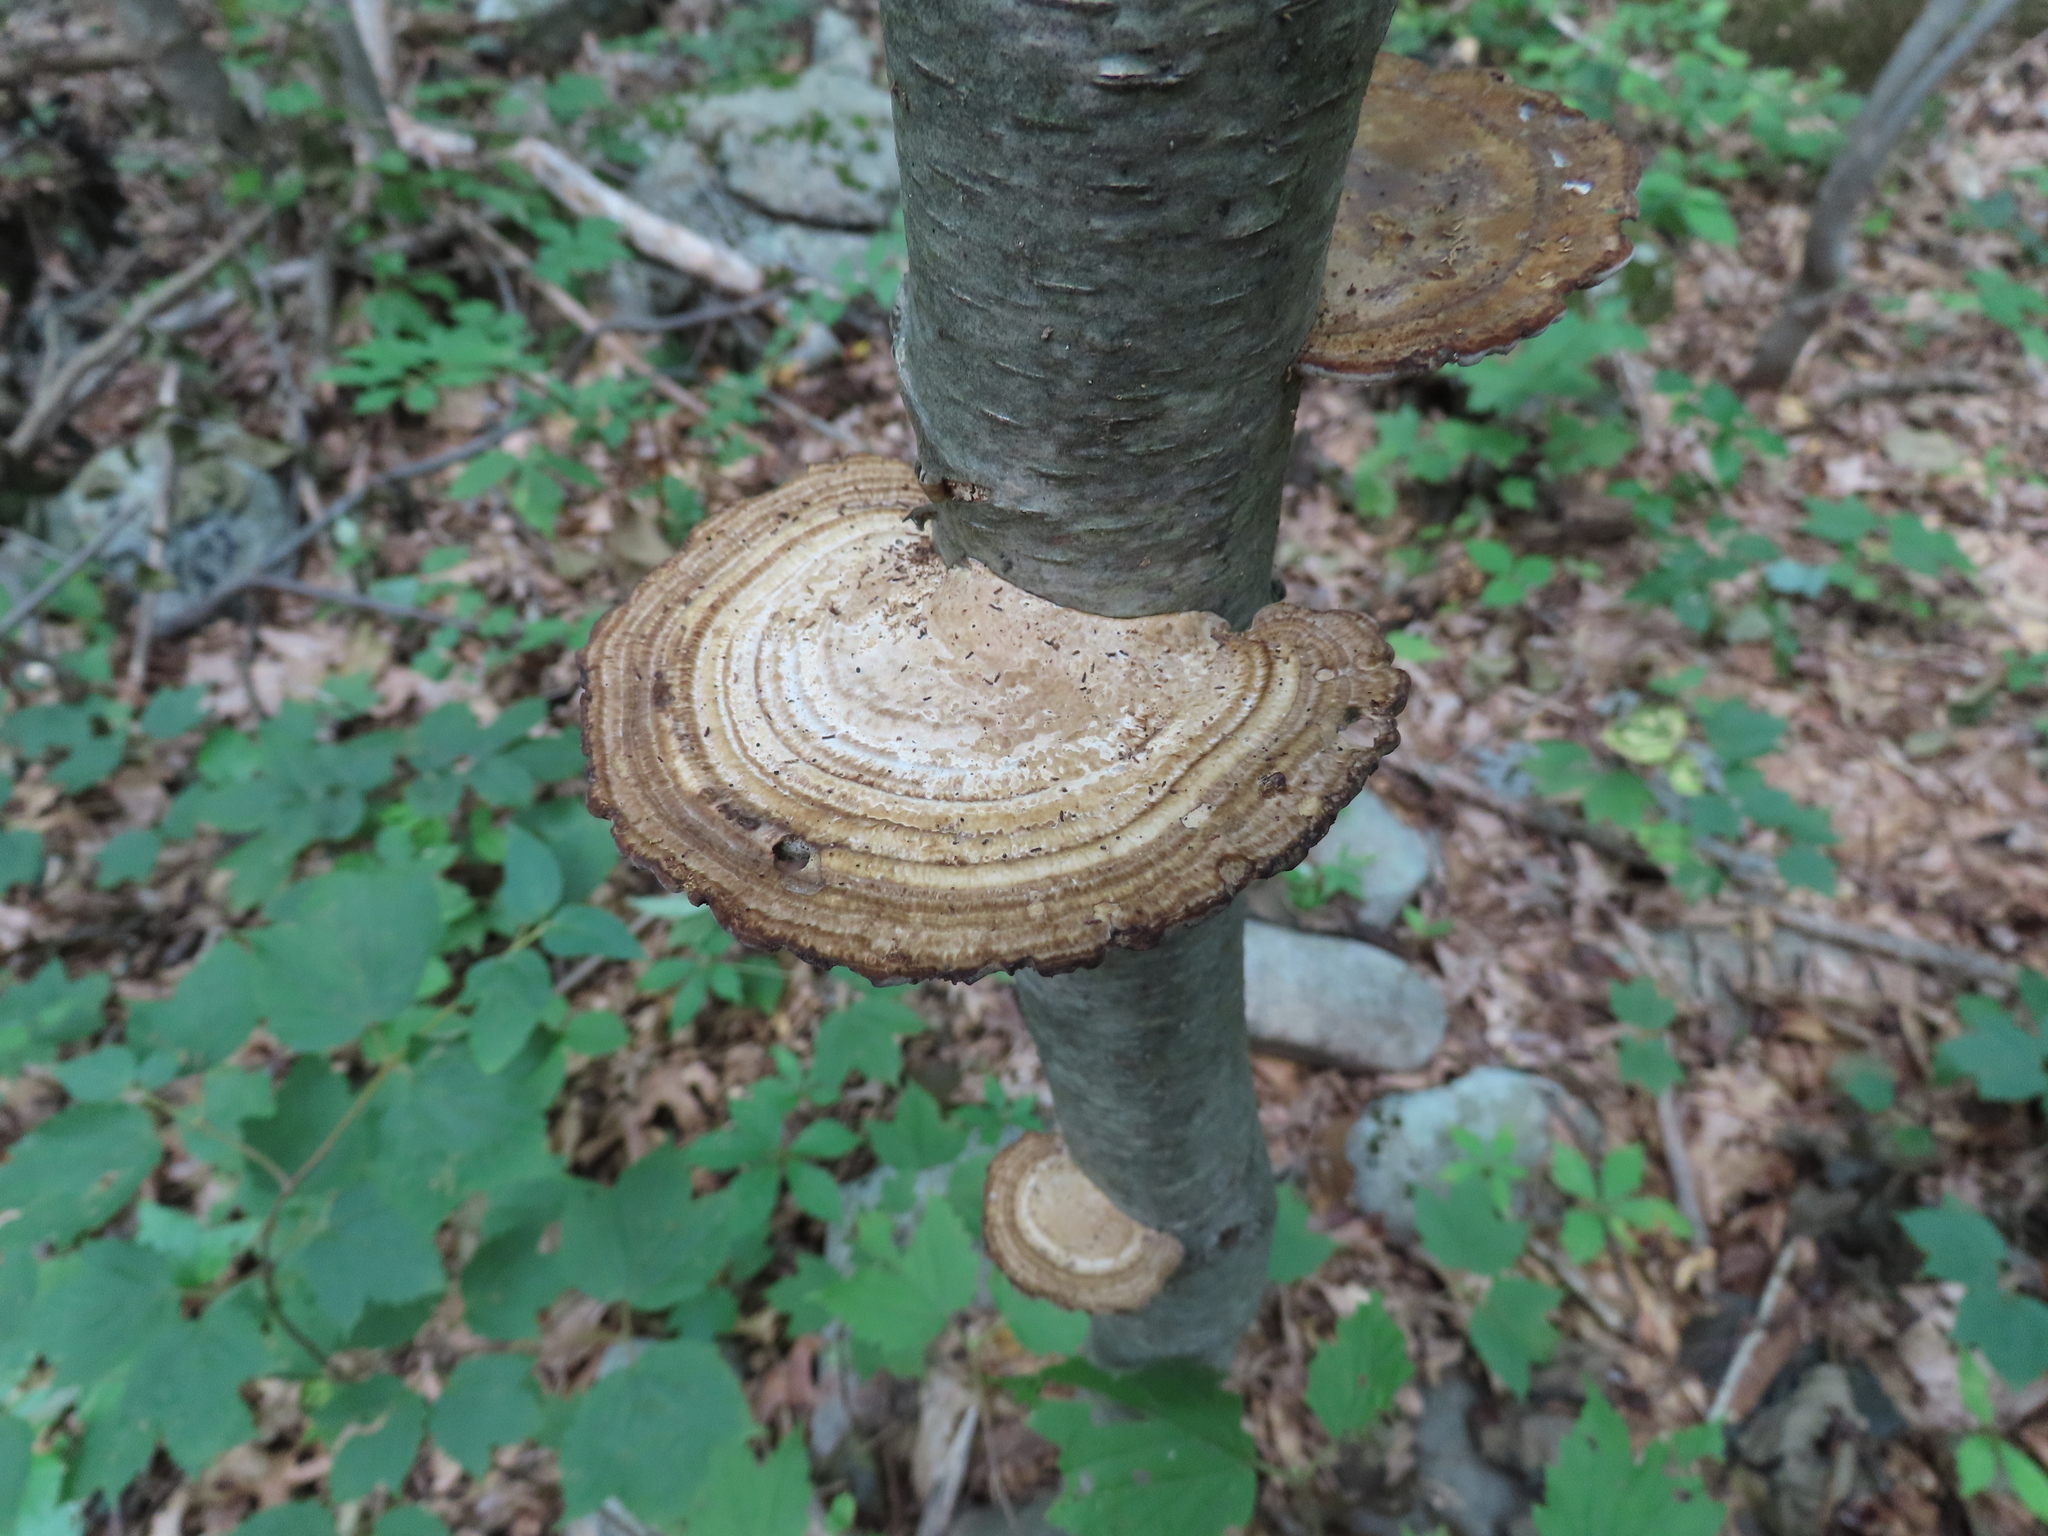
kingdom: Fungi
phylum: Basidiomycota
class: Agaricomycetes
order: Polyporales
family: Polyporaceae
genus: Daedaleopsis
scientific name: Daedaleopsis confragosa
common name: Blushing bracket
